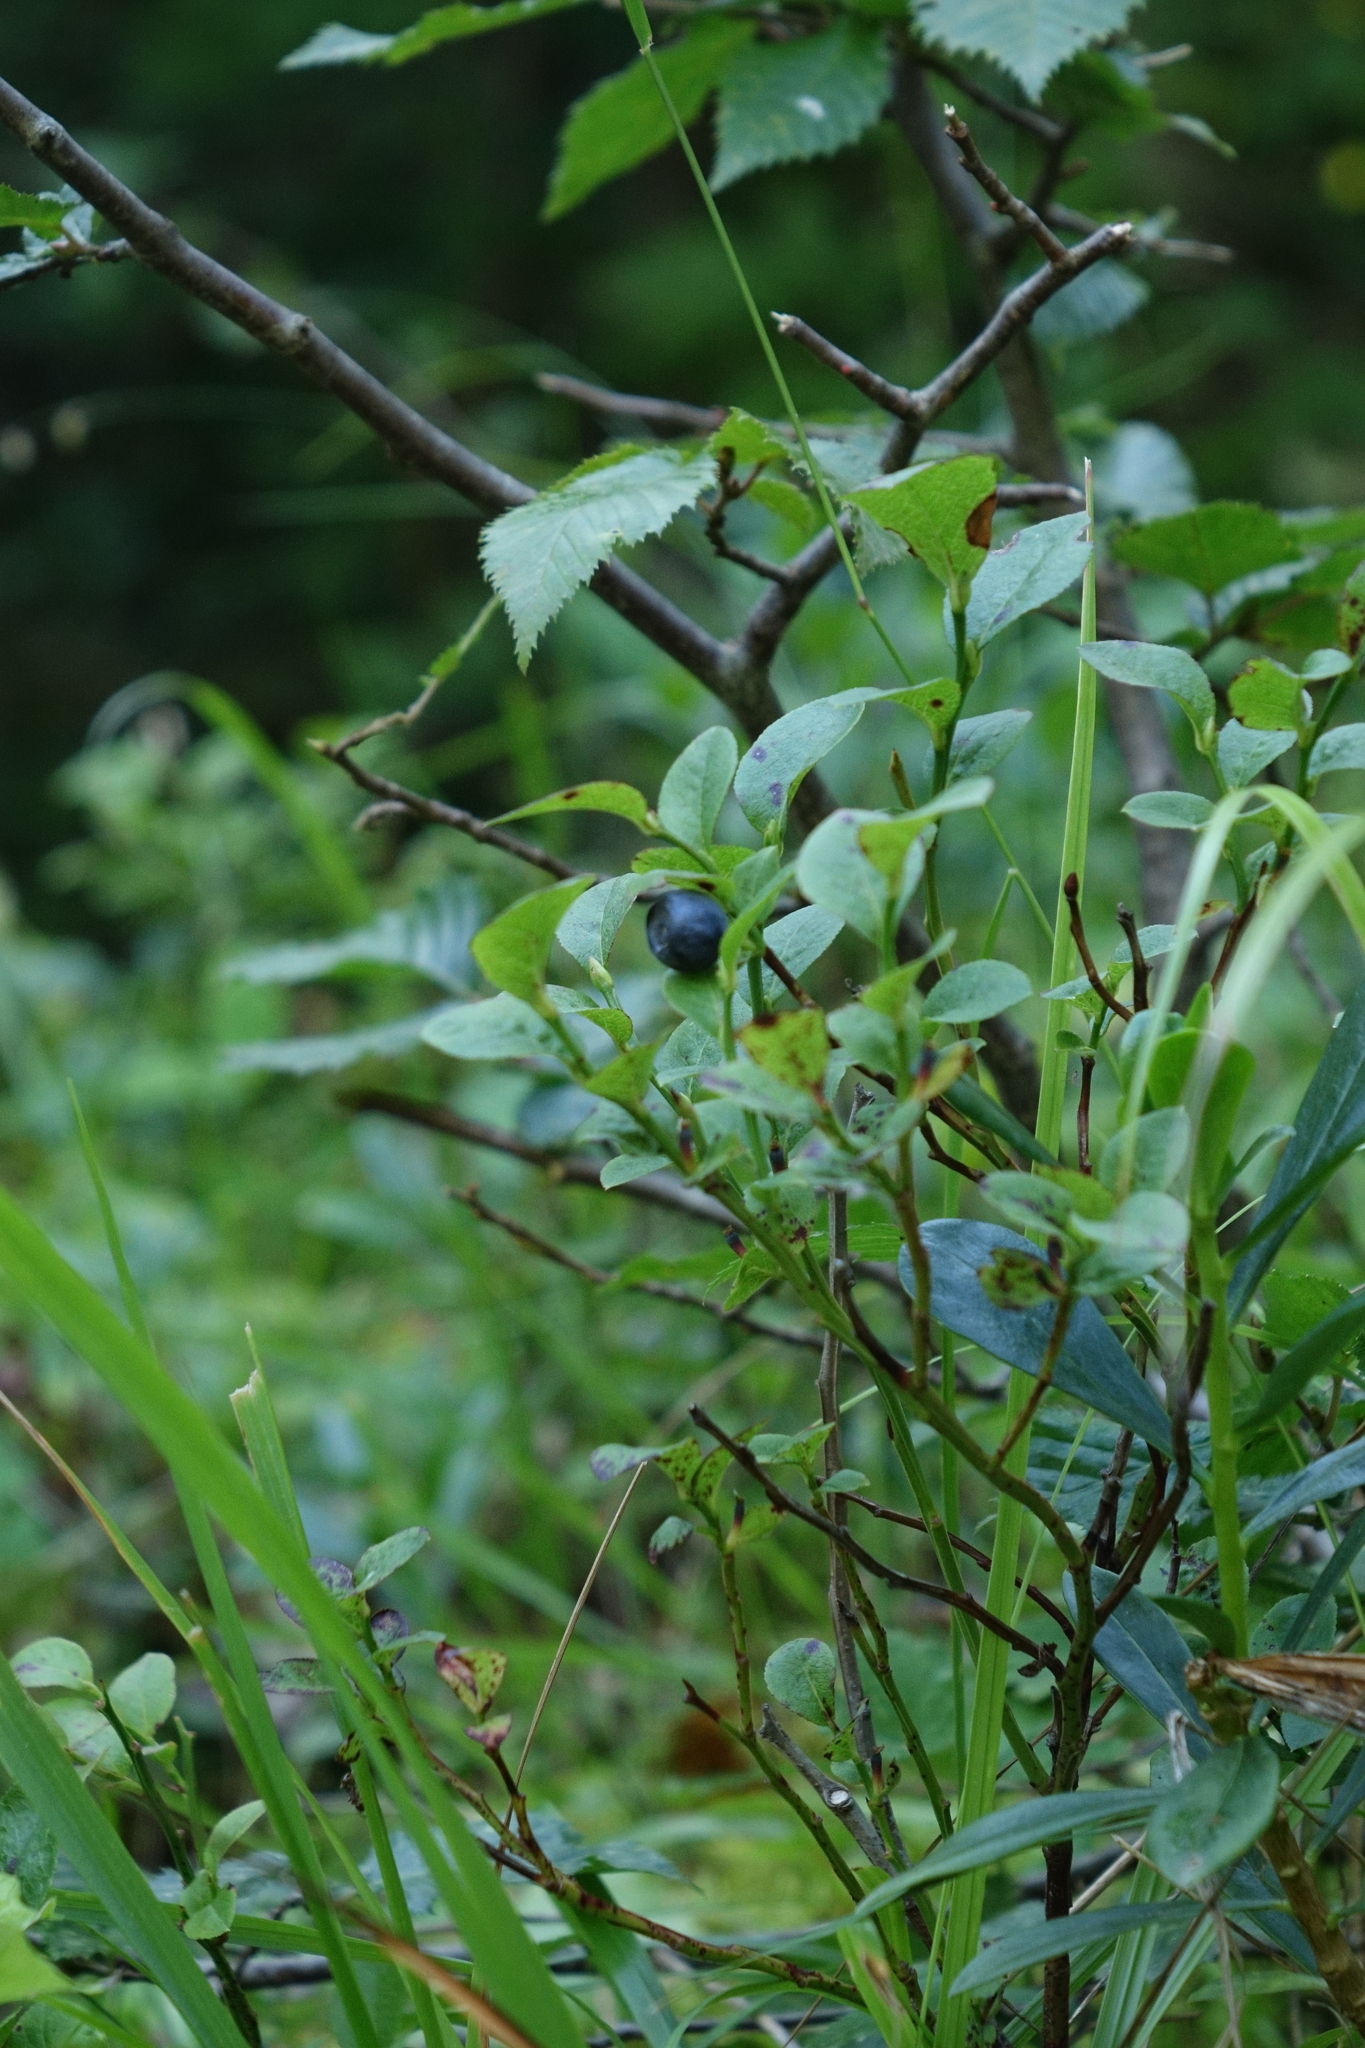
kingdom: Plantae
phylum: Tracheophyta
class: Magnoliopsida
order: Ericales
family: Ericaceae
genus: Vaccinium
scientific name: Vaccinium myrtillus
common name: Bilberry
